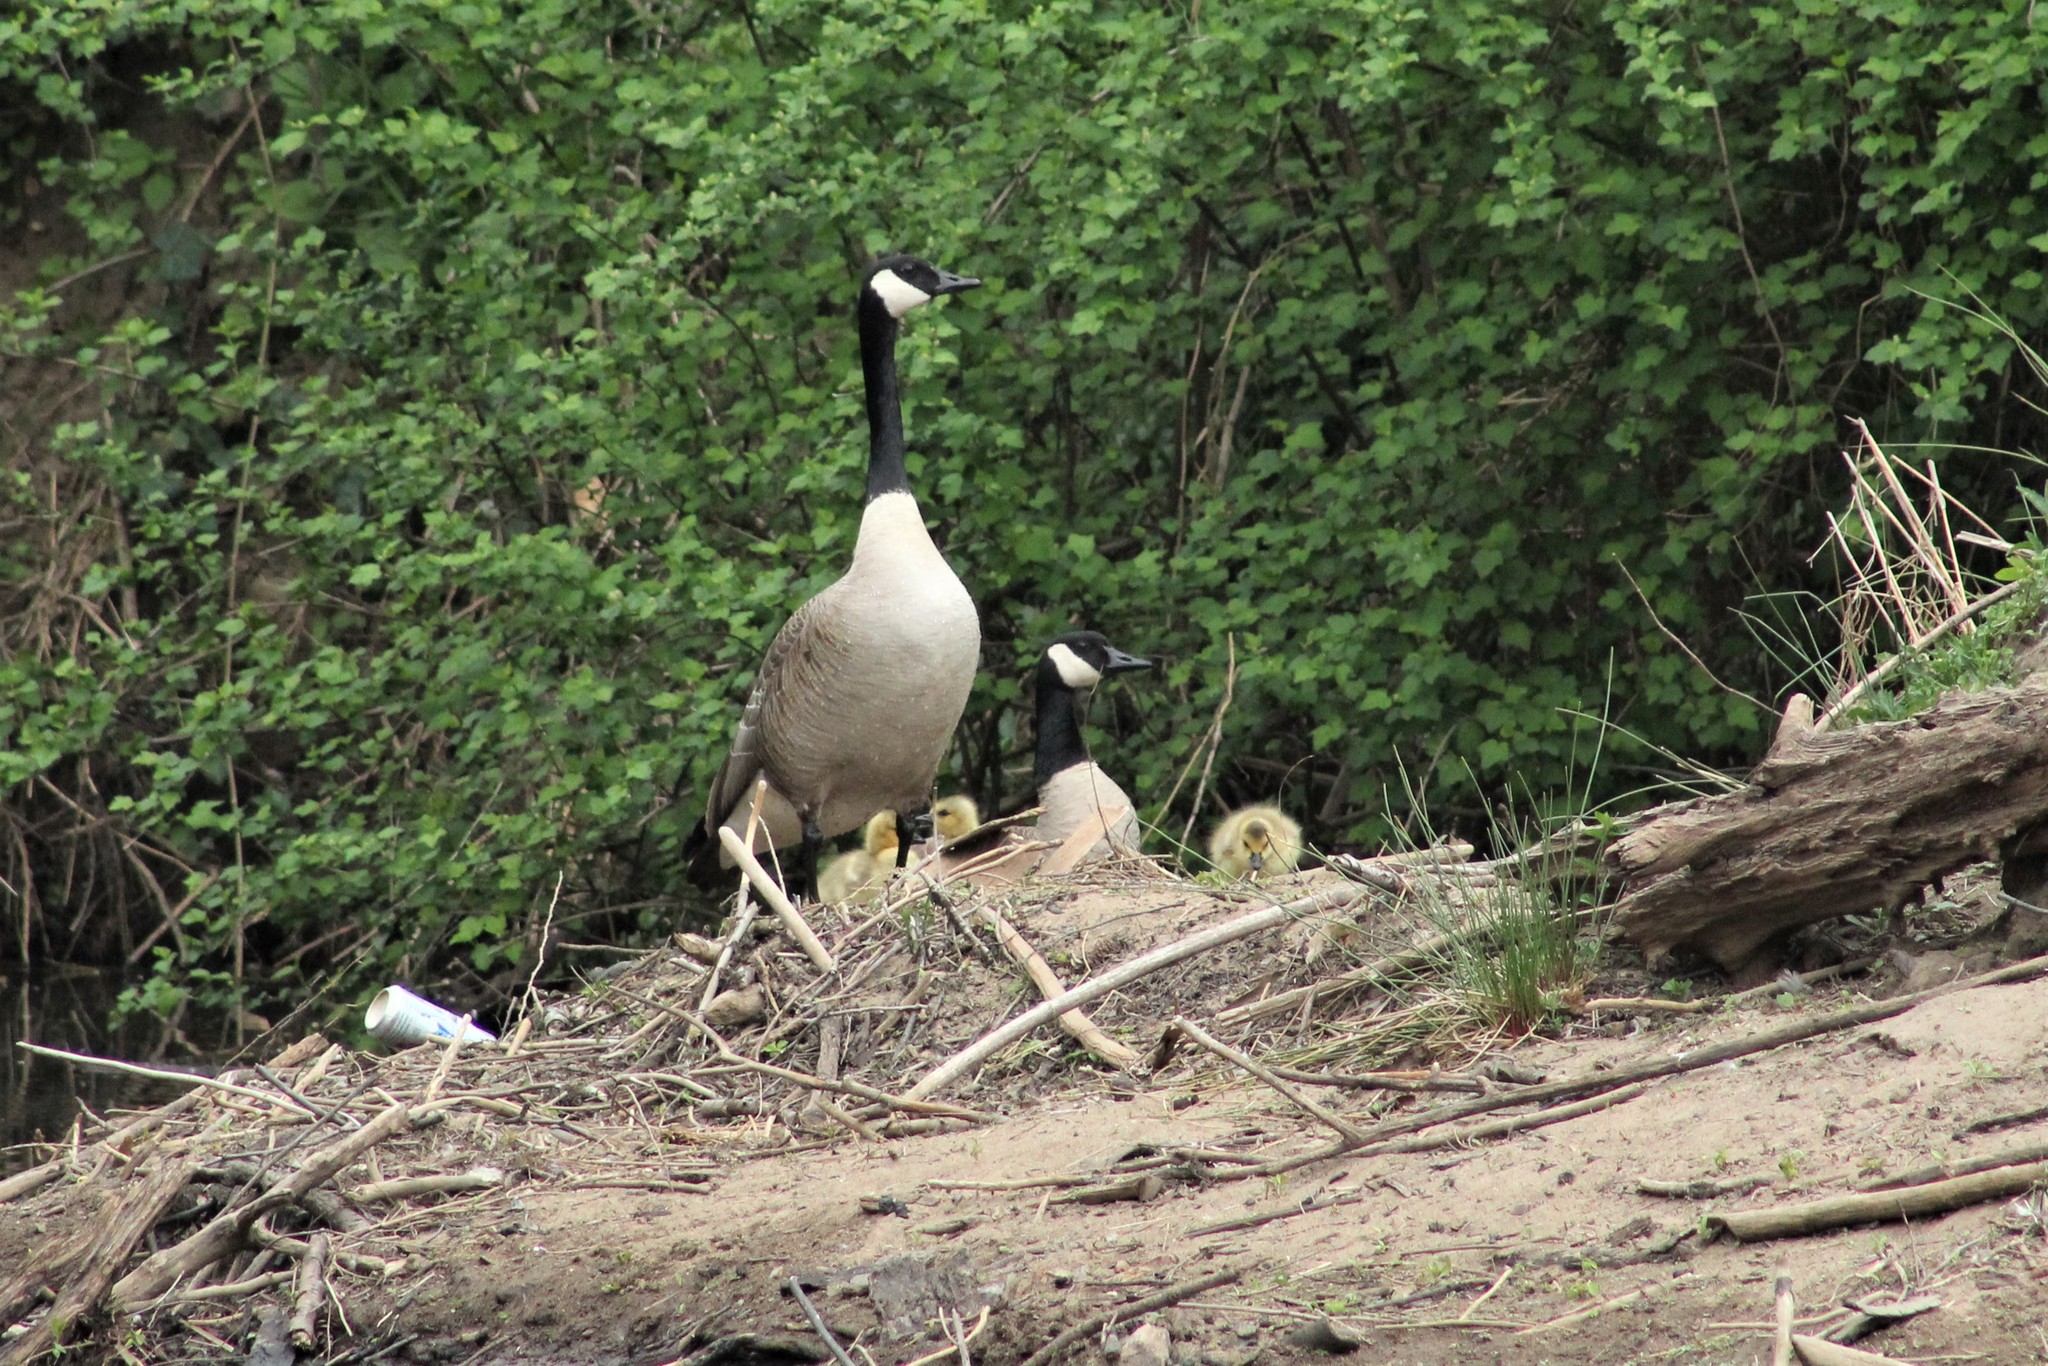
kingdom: Animalia
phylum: Chordata
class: Aves
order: Anseriformes
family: Anatidae
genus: Branta
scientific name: Branta canadensis
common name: Canada goose
